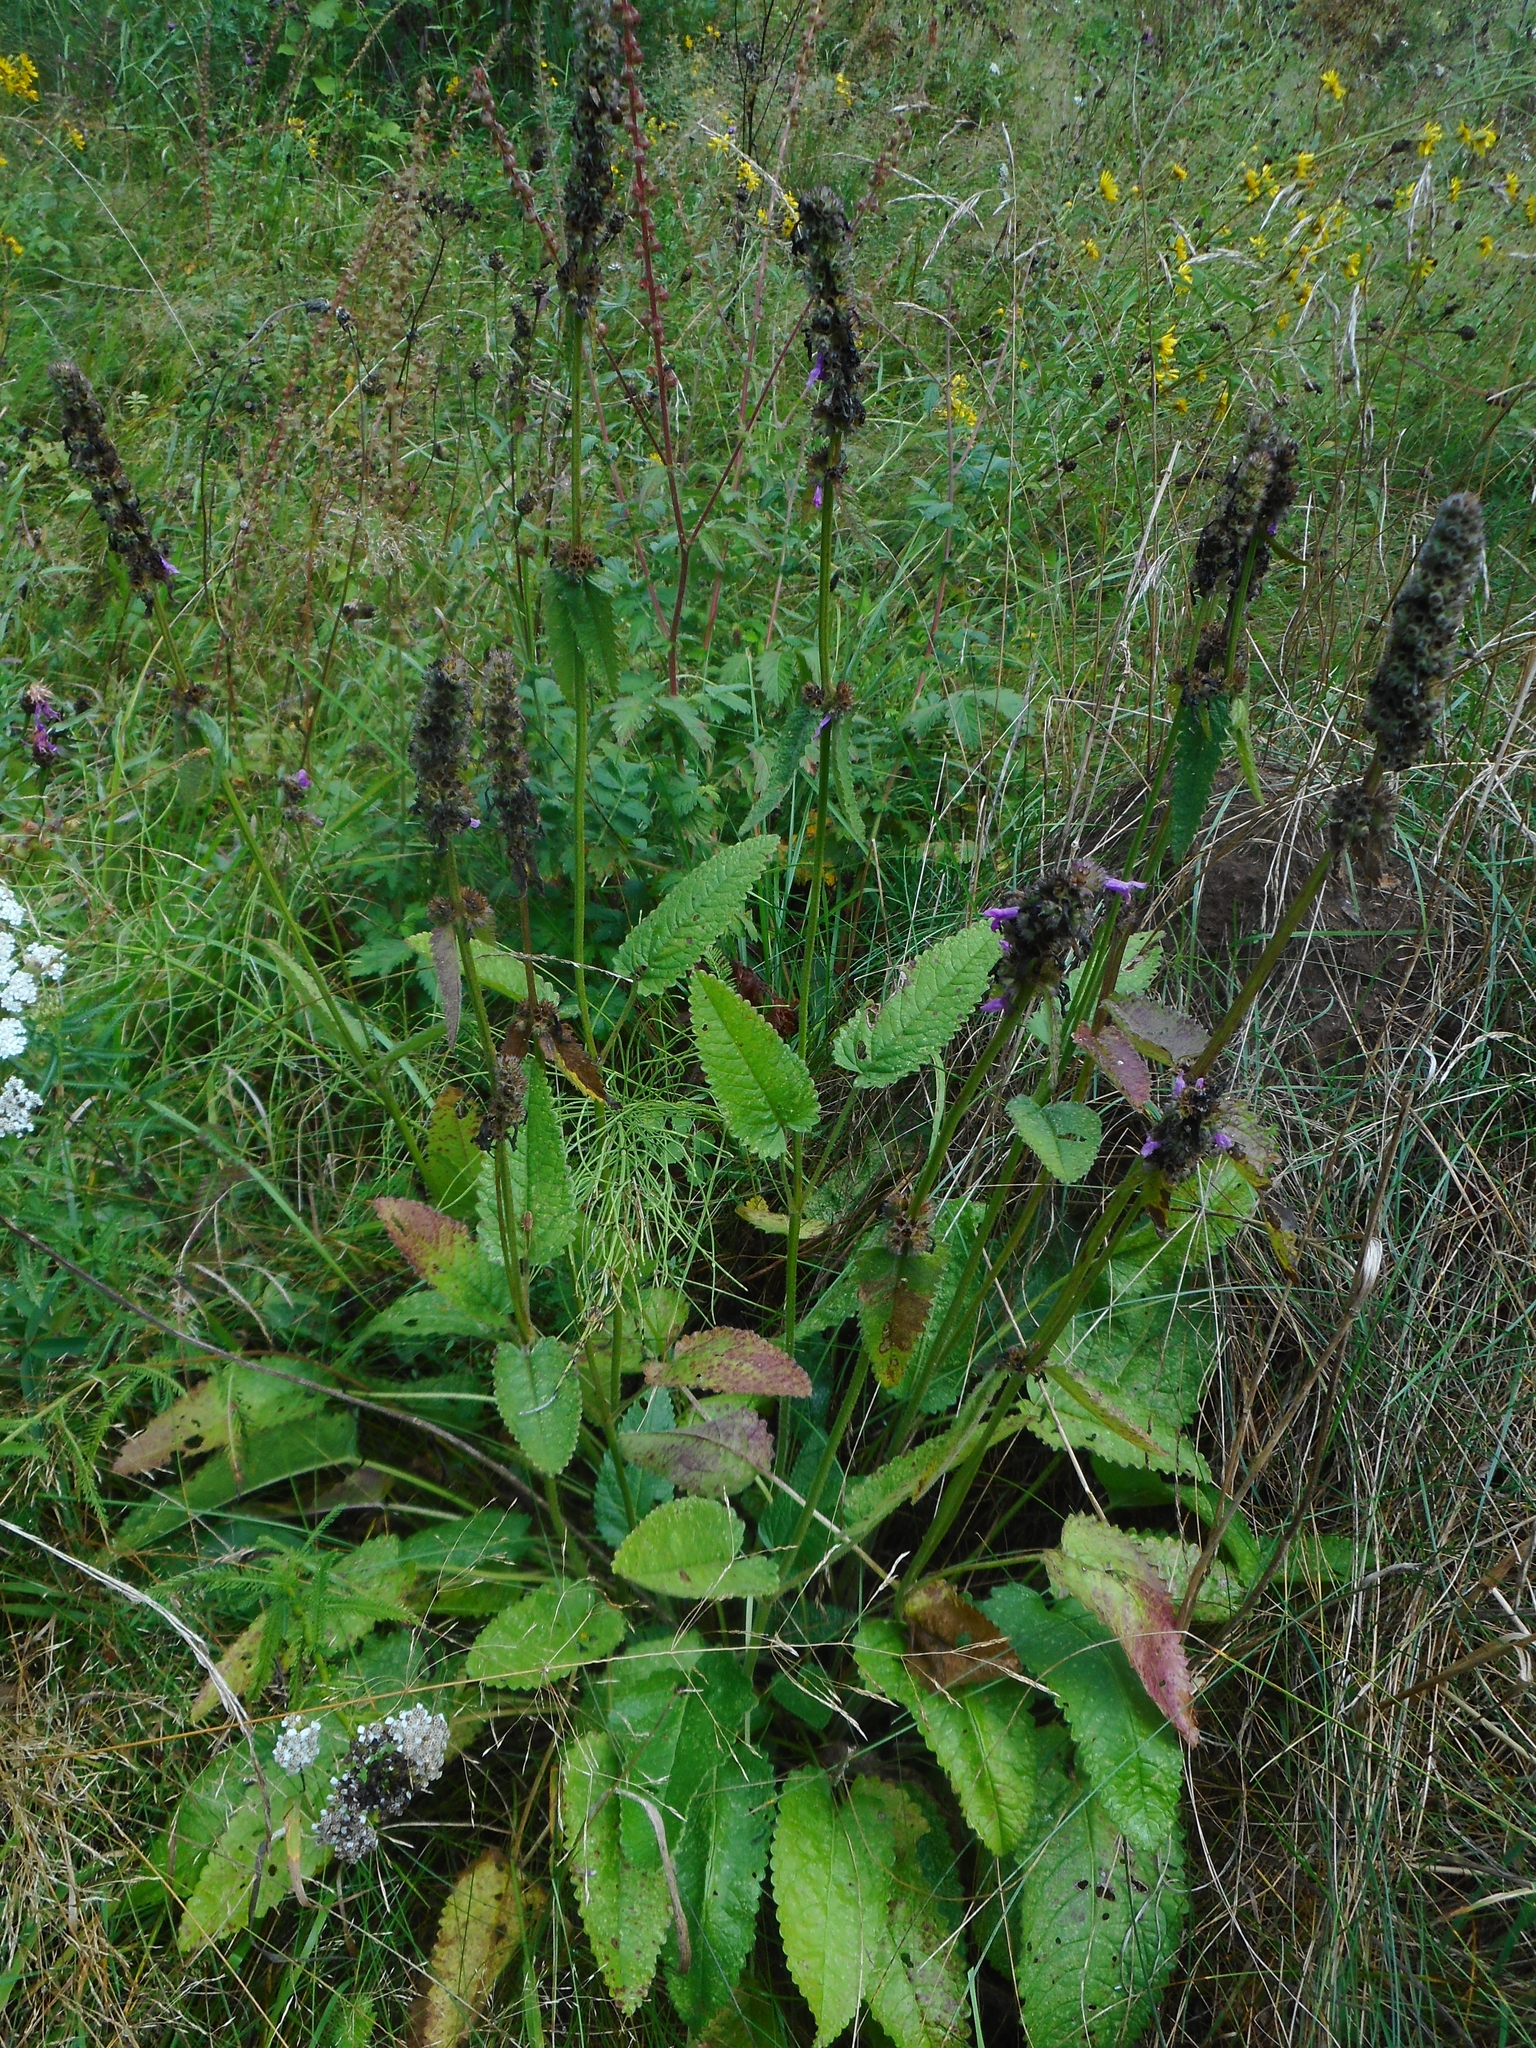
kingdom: Plantae
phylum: Tracheophyta
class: Magnoliopsida
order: Lamiales
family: Lamiaceae
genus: Betonica
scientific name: Betonica officinalis
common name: Bishop's-wort
